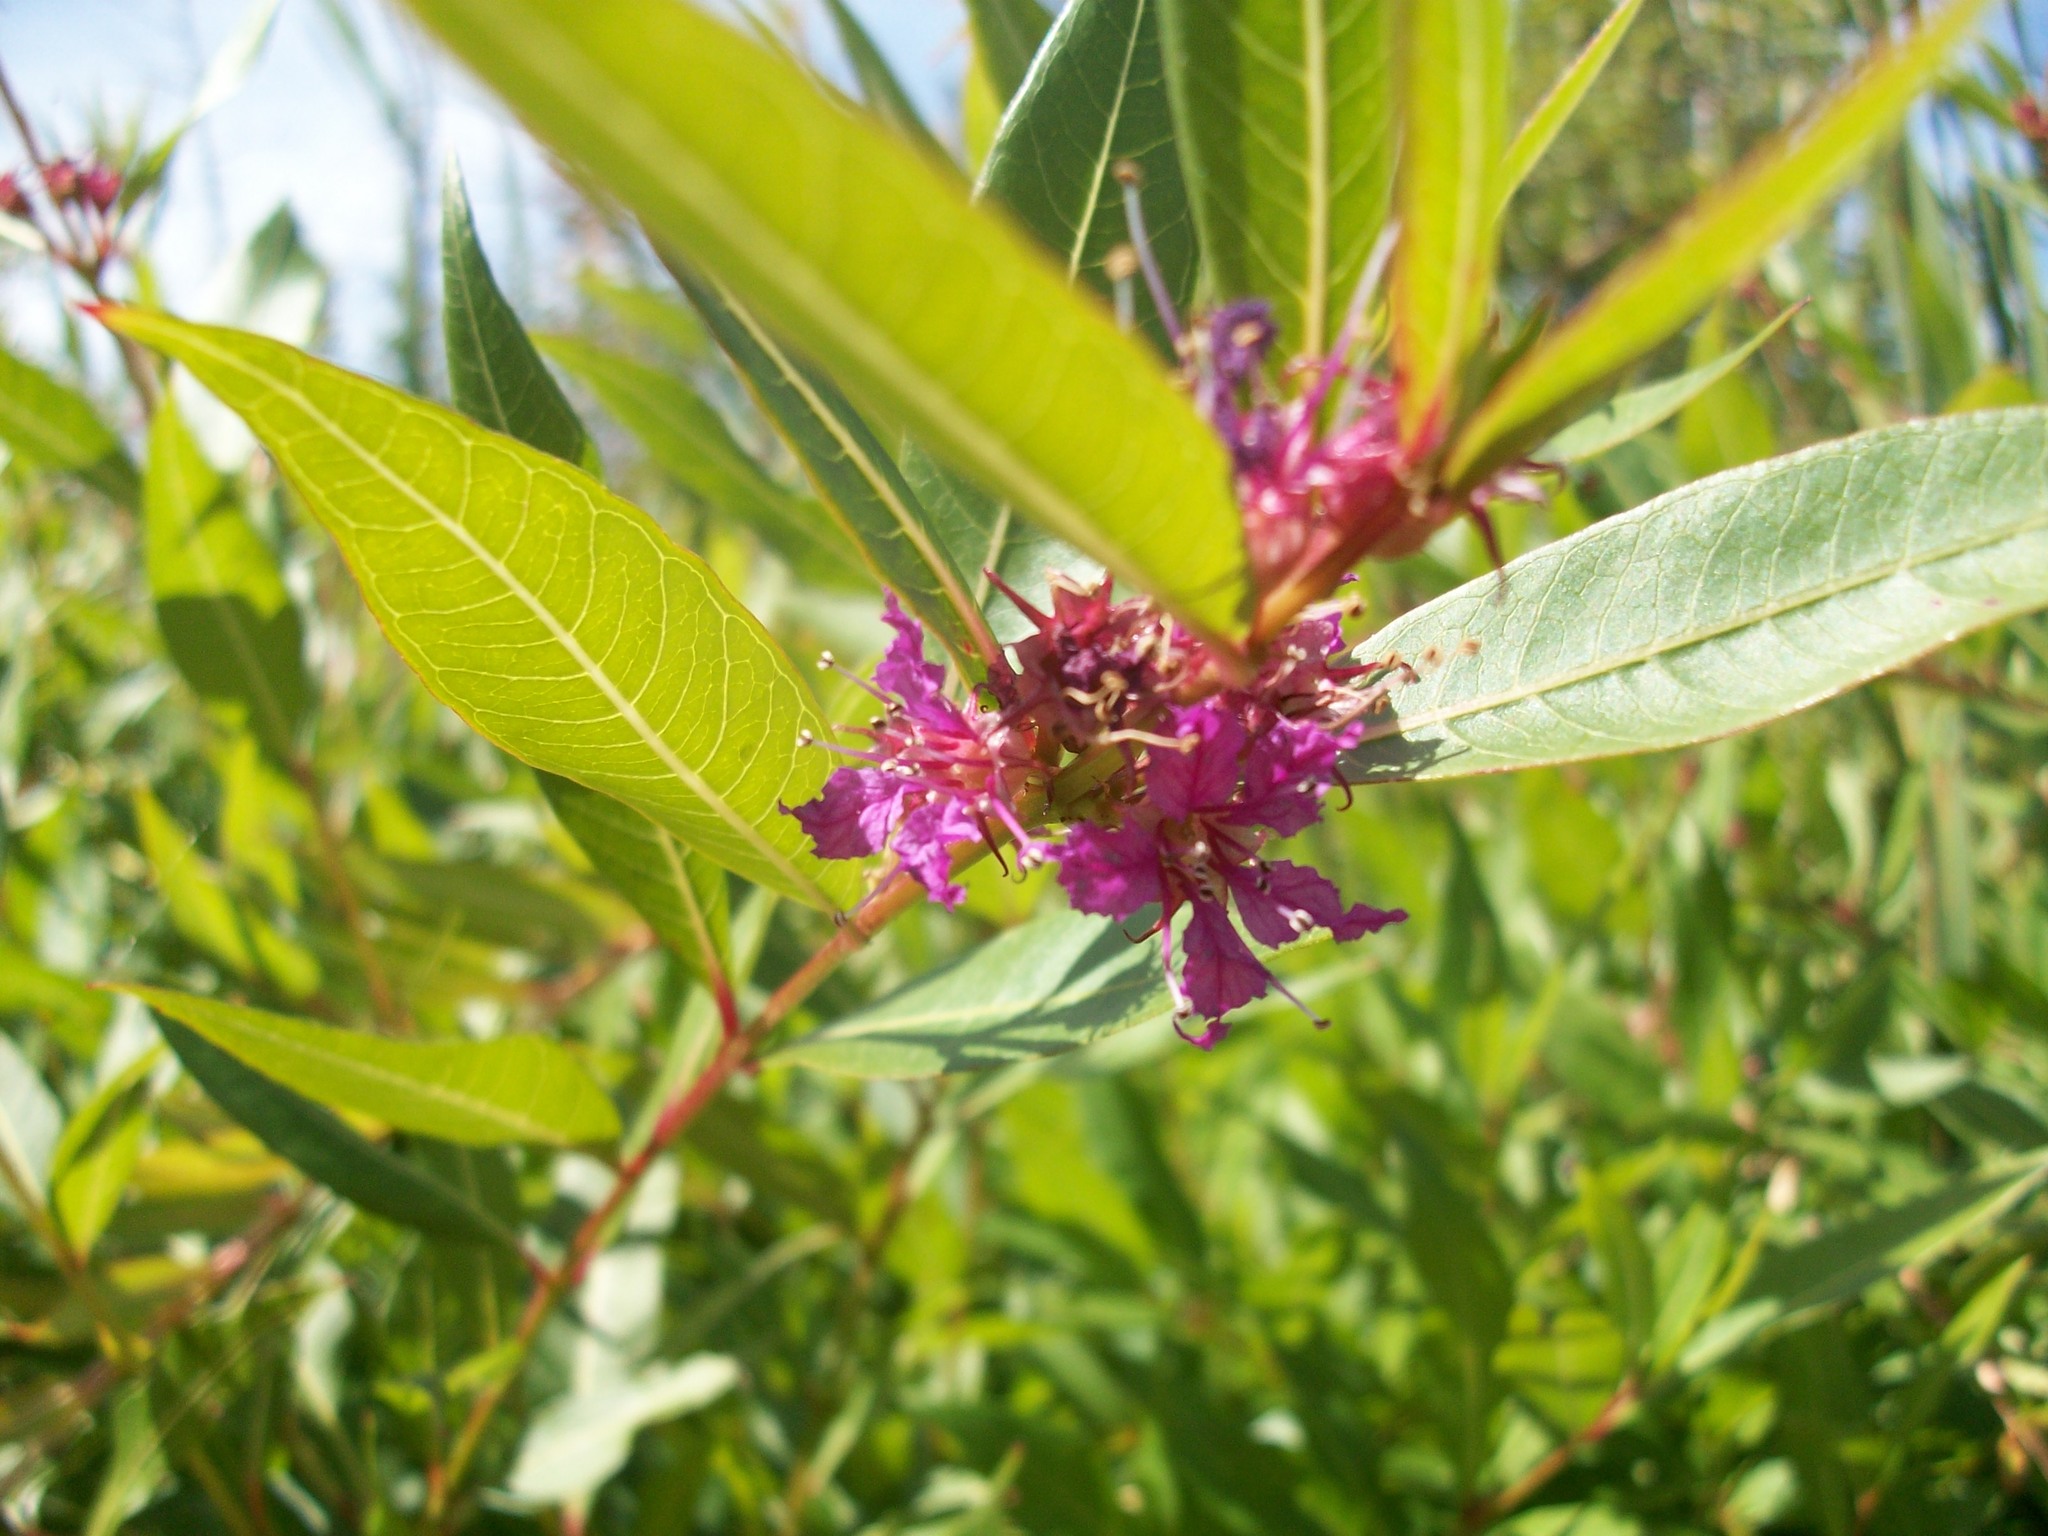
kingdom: Plantae
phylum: Tracheophyta
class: Magnoliopsida
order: Myrtales
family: Lythraceae
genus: Decodon
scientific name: Decodon verticillatus
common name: Hairy swamp loosestrife
